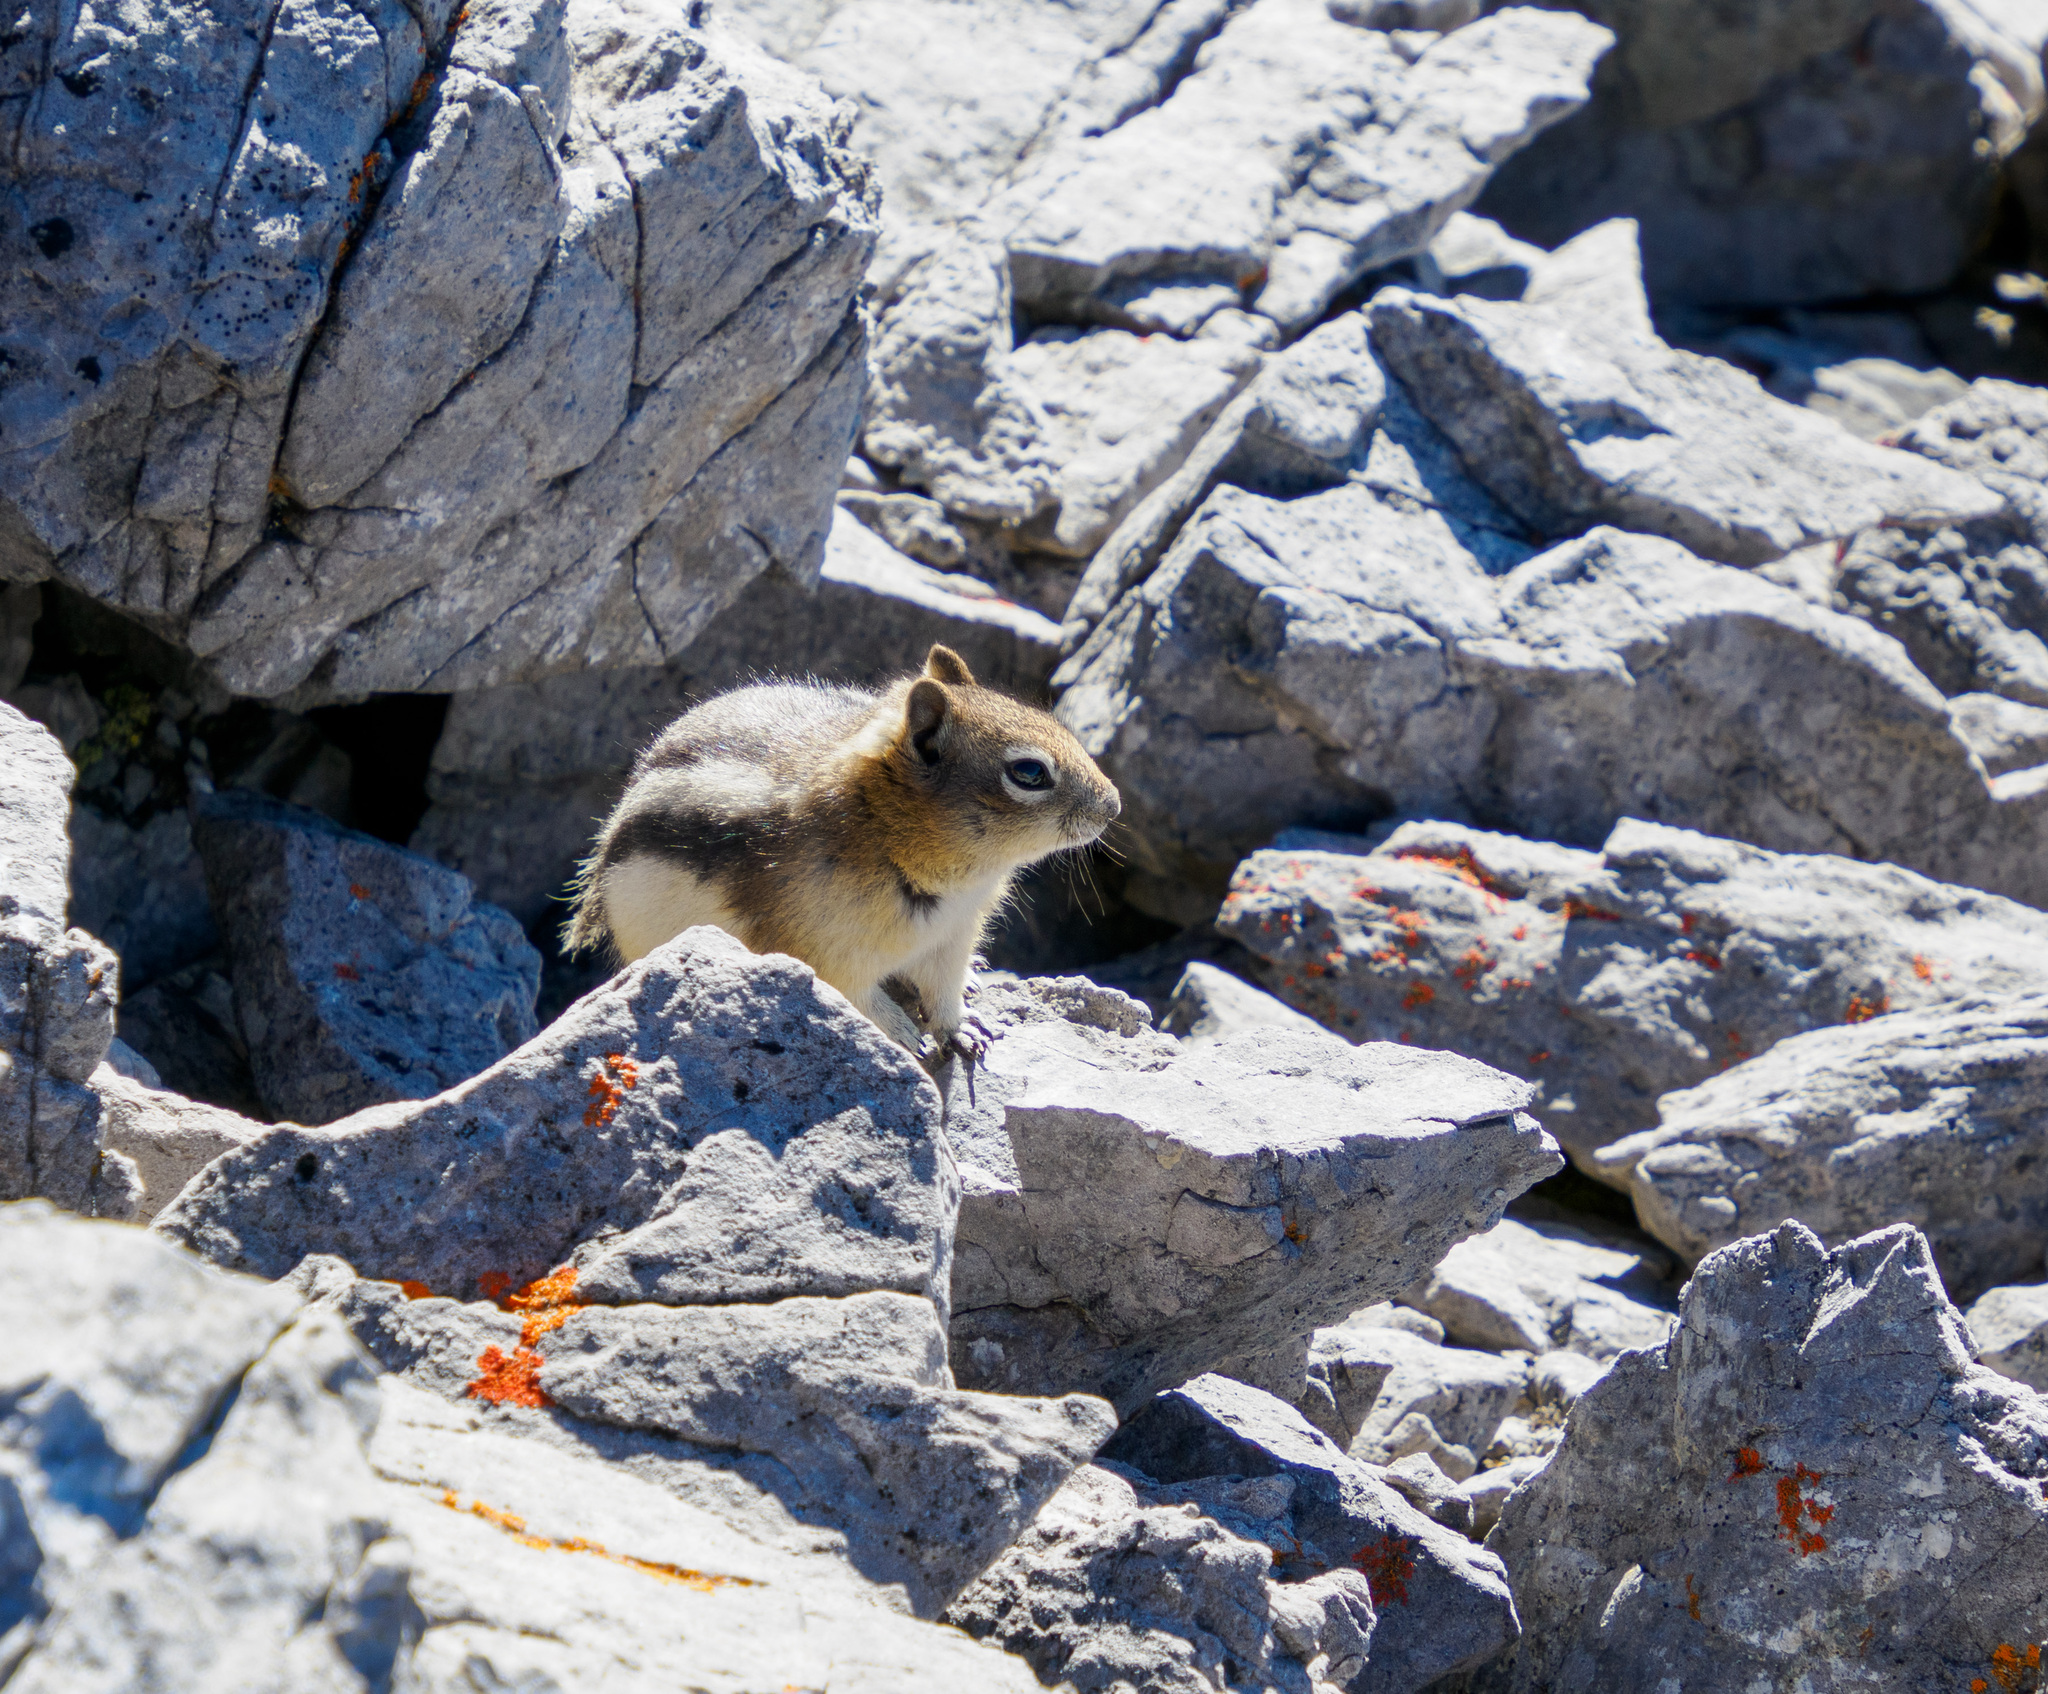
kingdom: Animalia
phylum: Chordata
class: Mammalia
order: Rodentia
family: Sciuridae
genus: Callospermophilus
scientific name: Callospermophilus lateralis
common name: Golden-mantled ground squirrel
